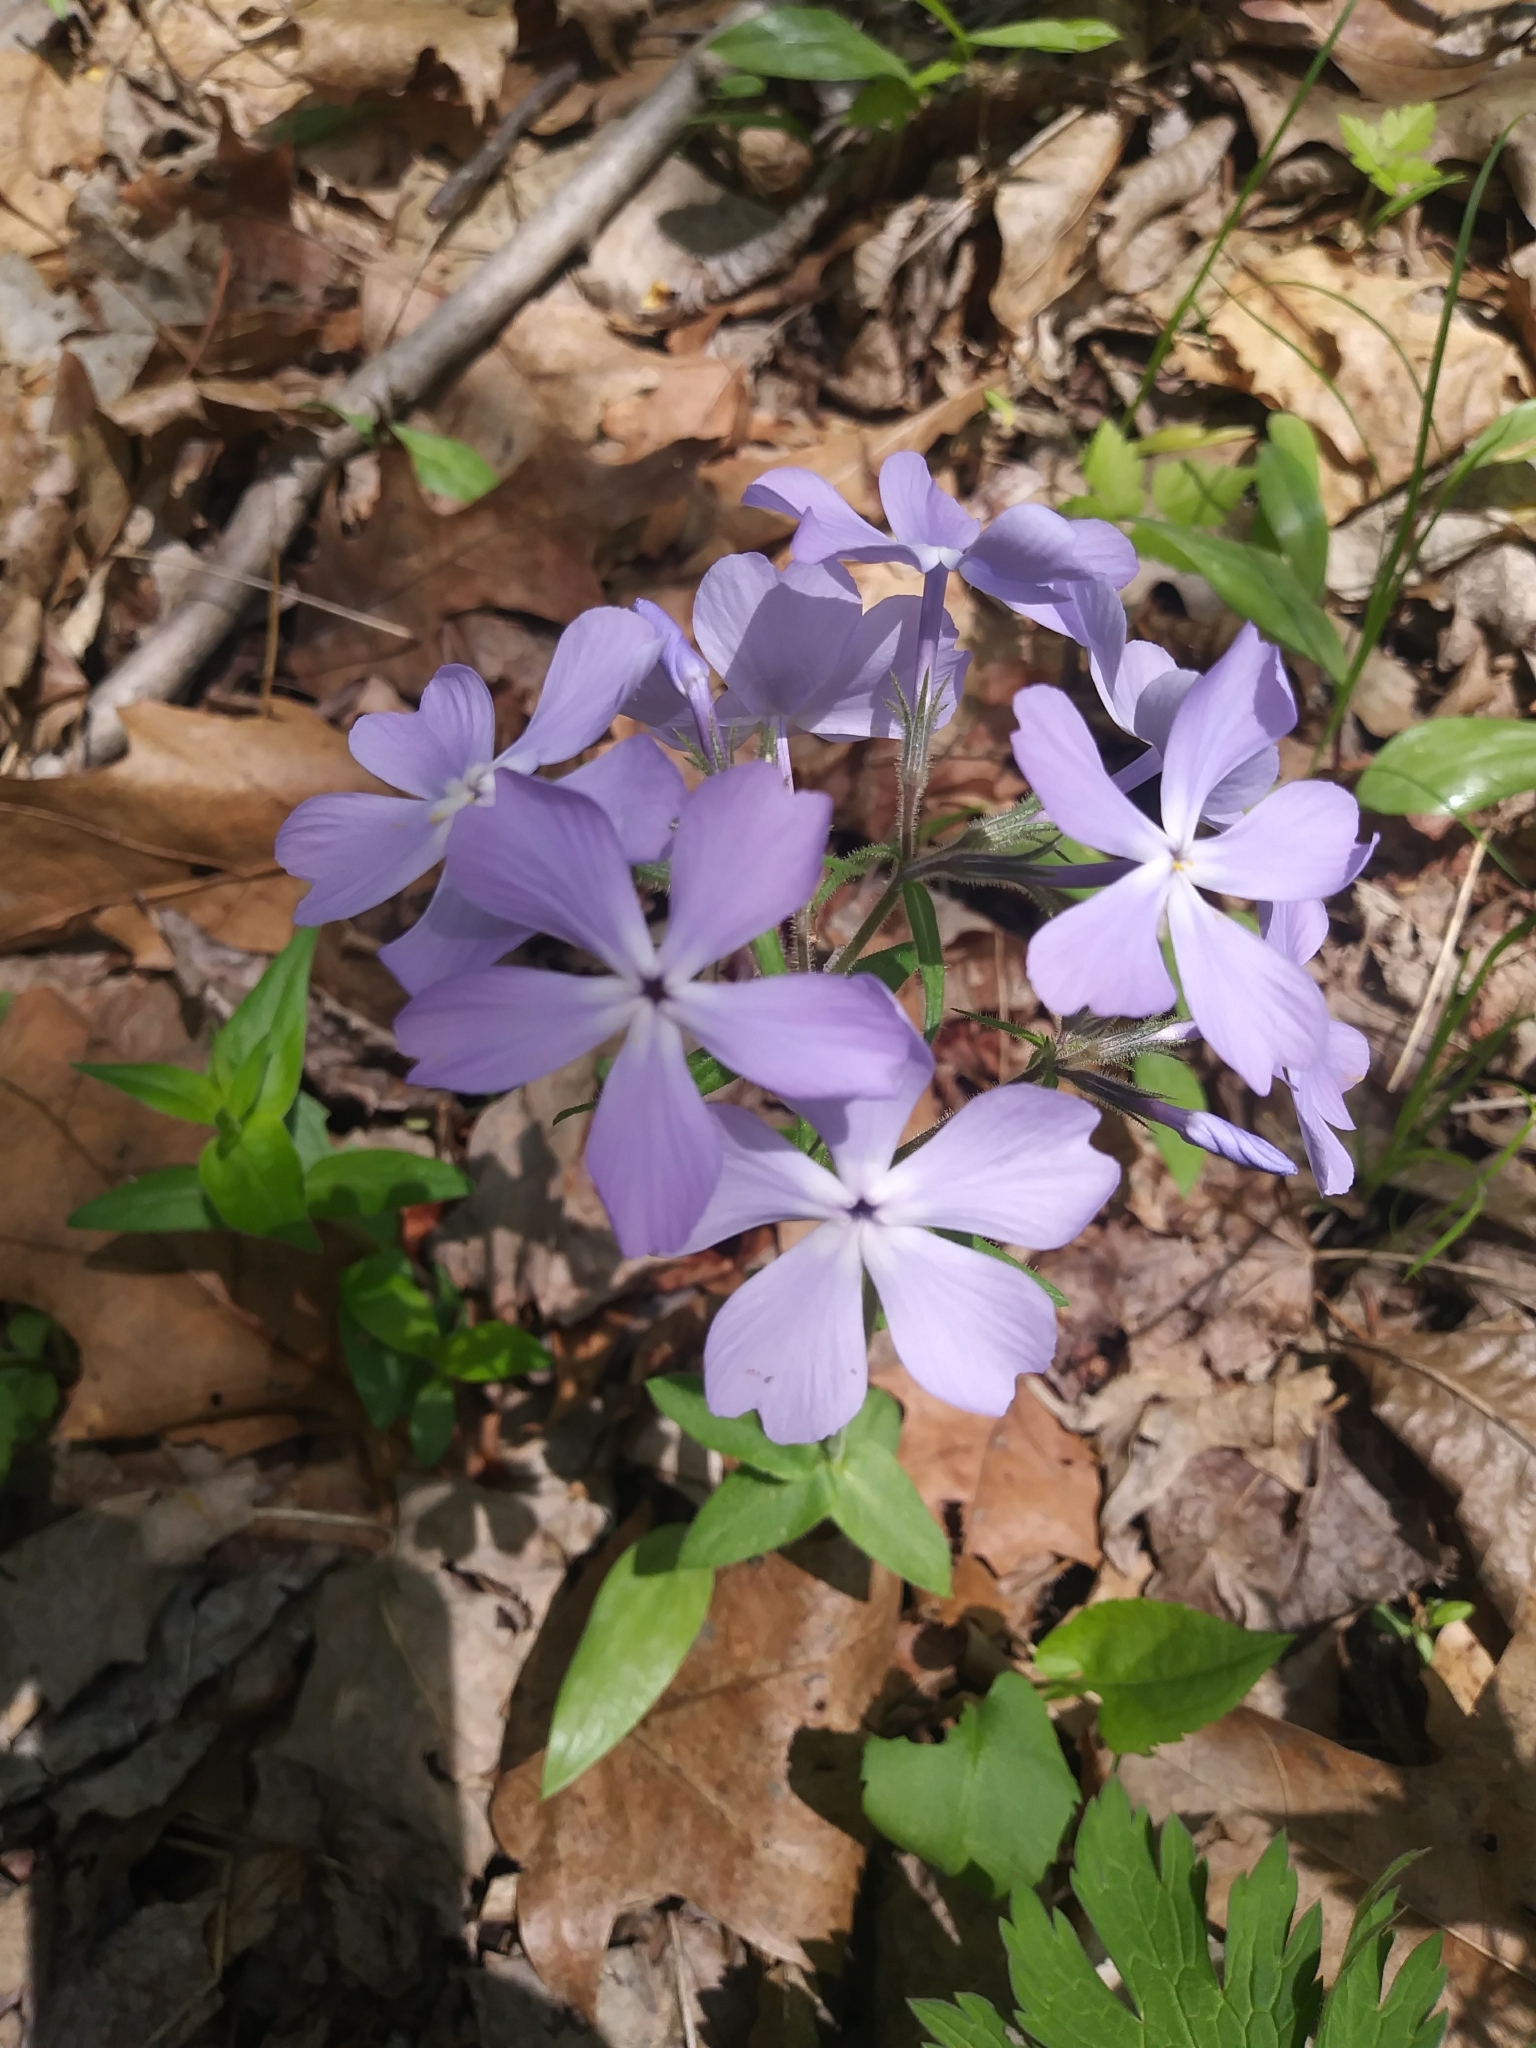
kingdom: Plantae
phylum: Tracheophyta
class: Magnoliopsida
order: Ericales
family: Polemoniaceae
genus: Phlox
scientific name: Phlox divaricata
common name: Blue phlox
